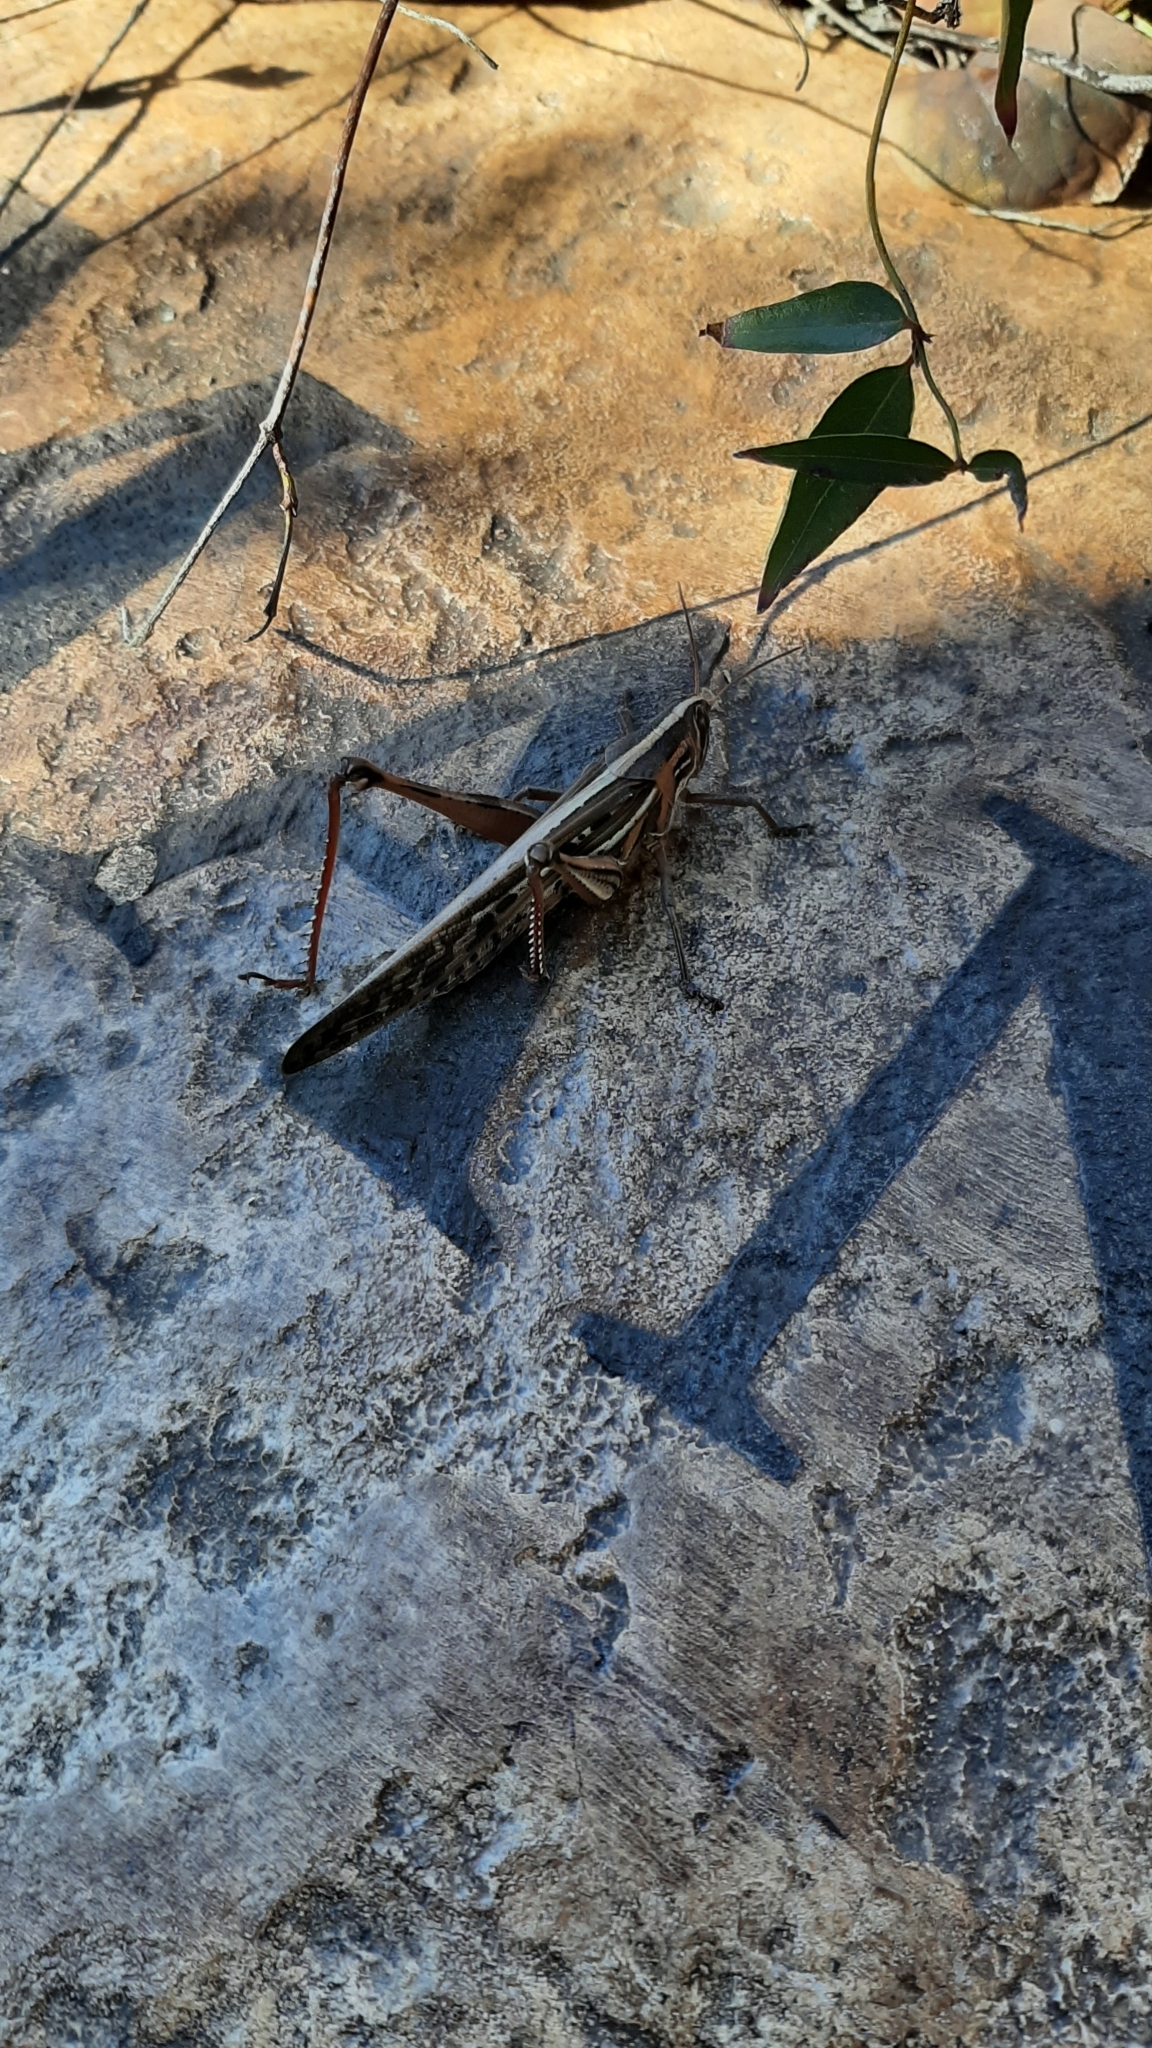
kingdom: Animalia
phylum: Arthropoda
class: Insecta
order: Orthoptera
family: Acrididae
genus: Schistocerca
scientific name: Schistocerca americana
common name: American bird locust
